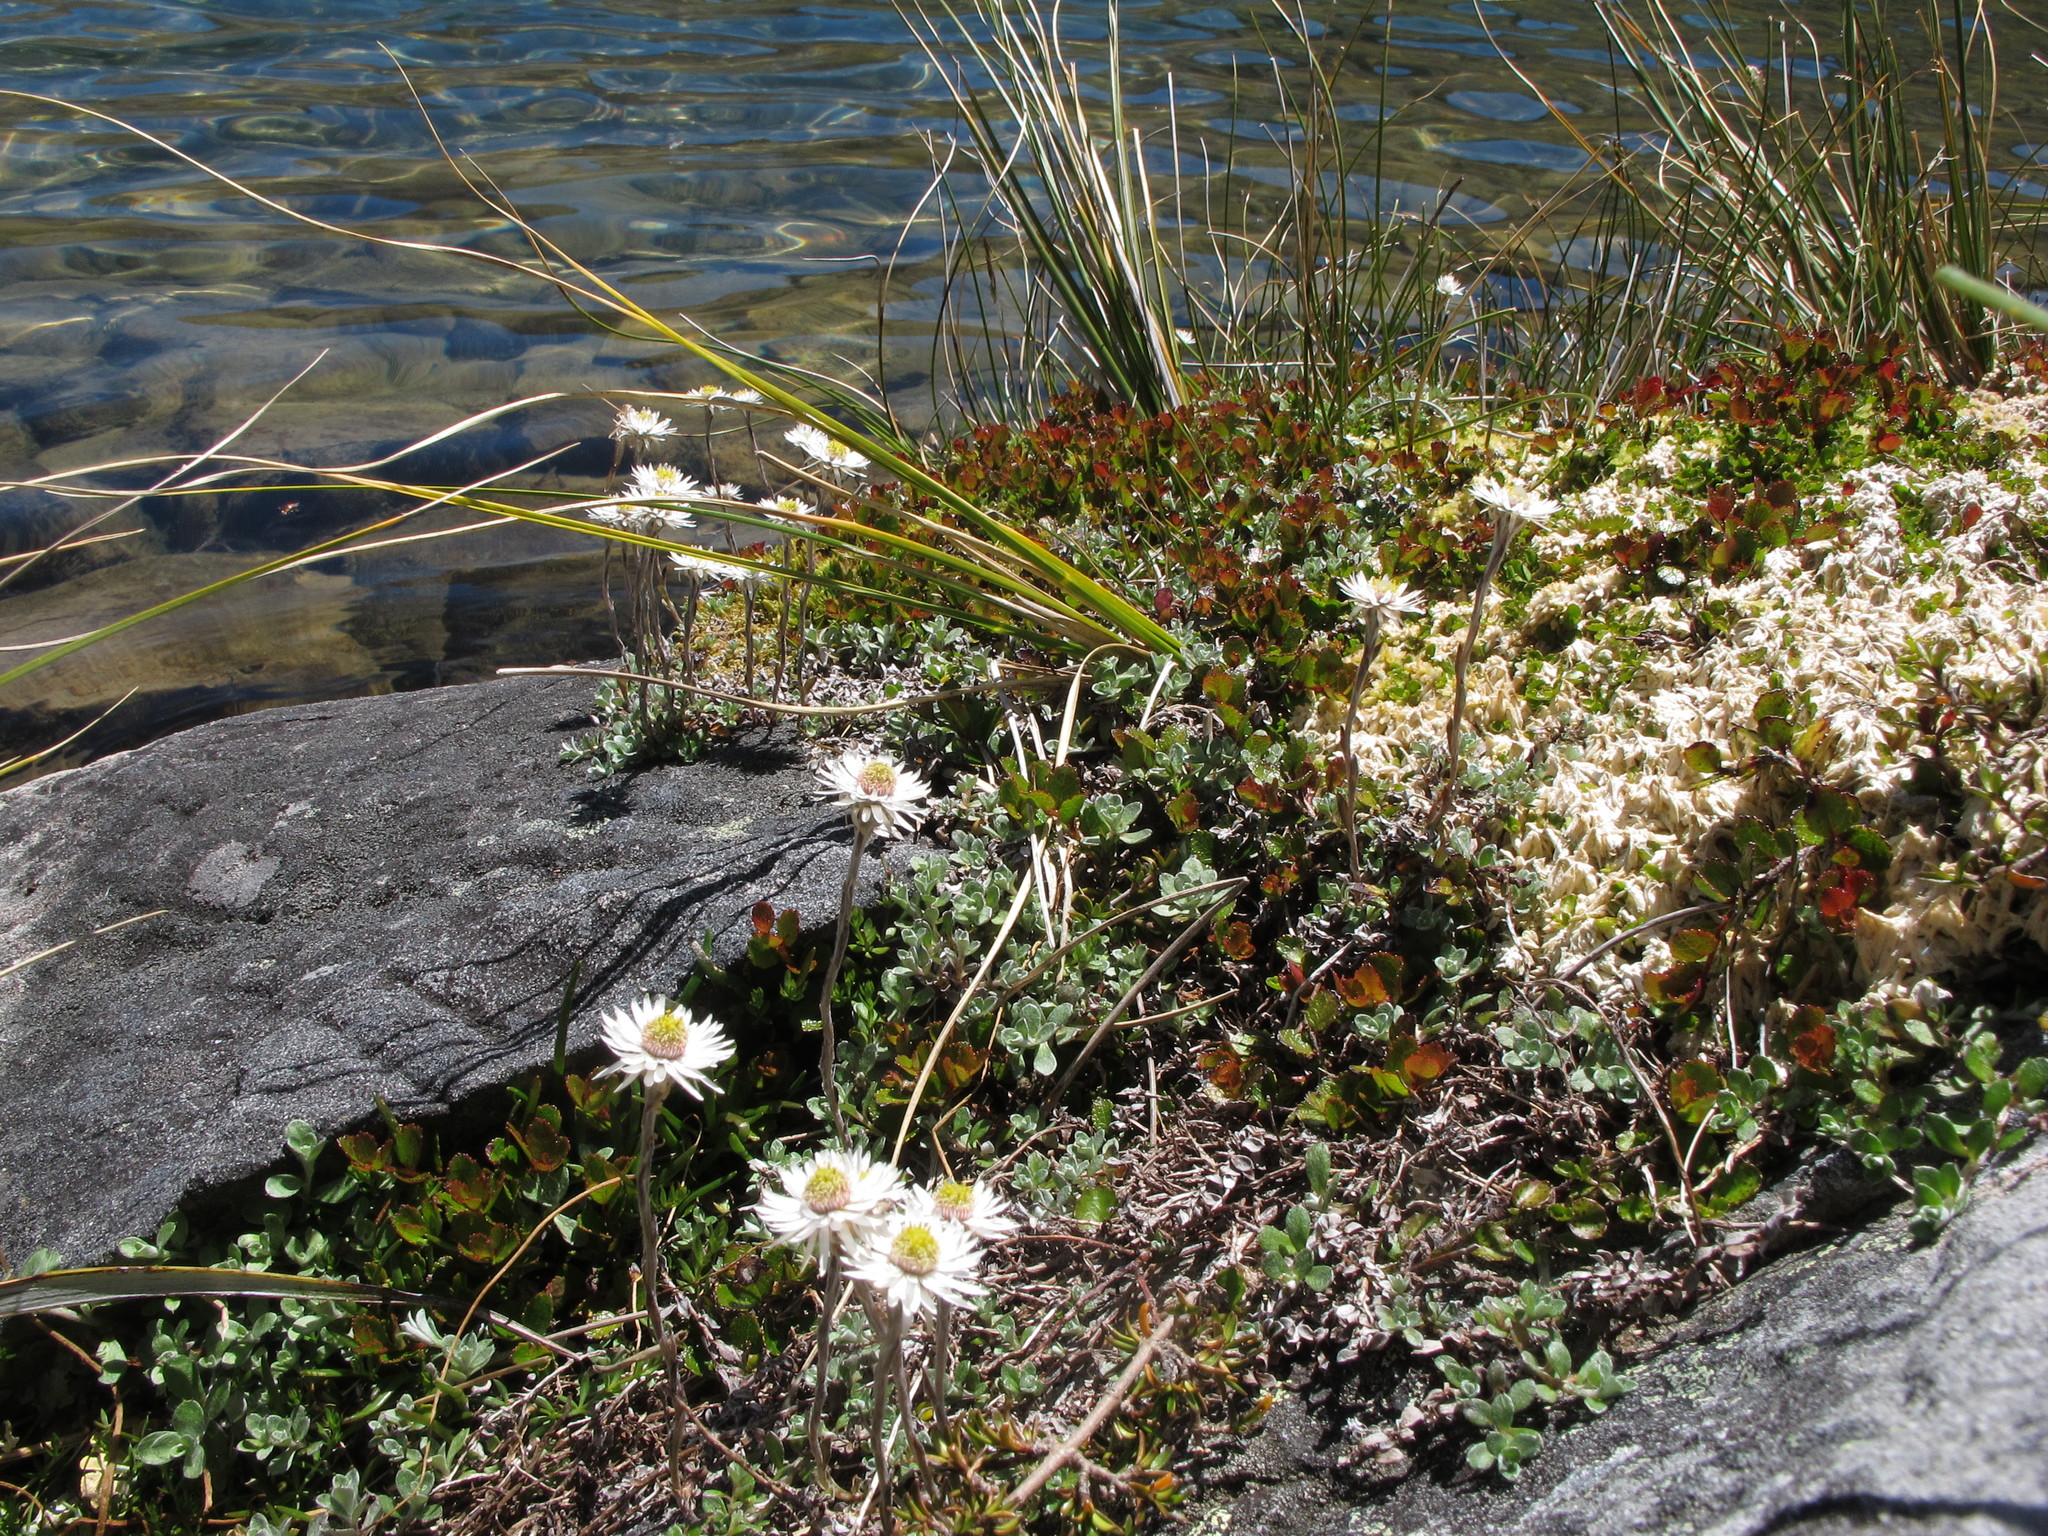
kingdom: Plantae
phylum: Tracheophyta
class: Magnoliopsida
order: Asterales
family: Asteraceae
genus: Anaphalioides
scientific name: Anaphalioides bellidioides
